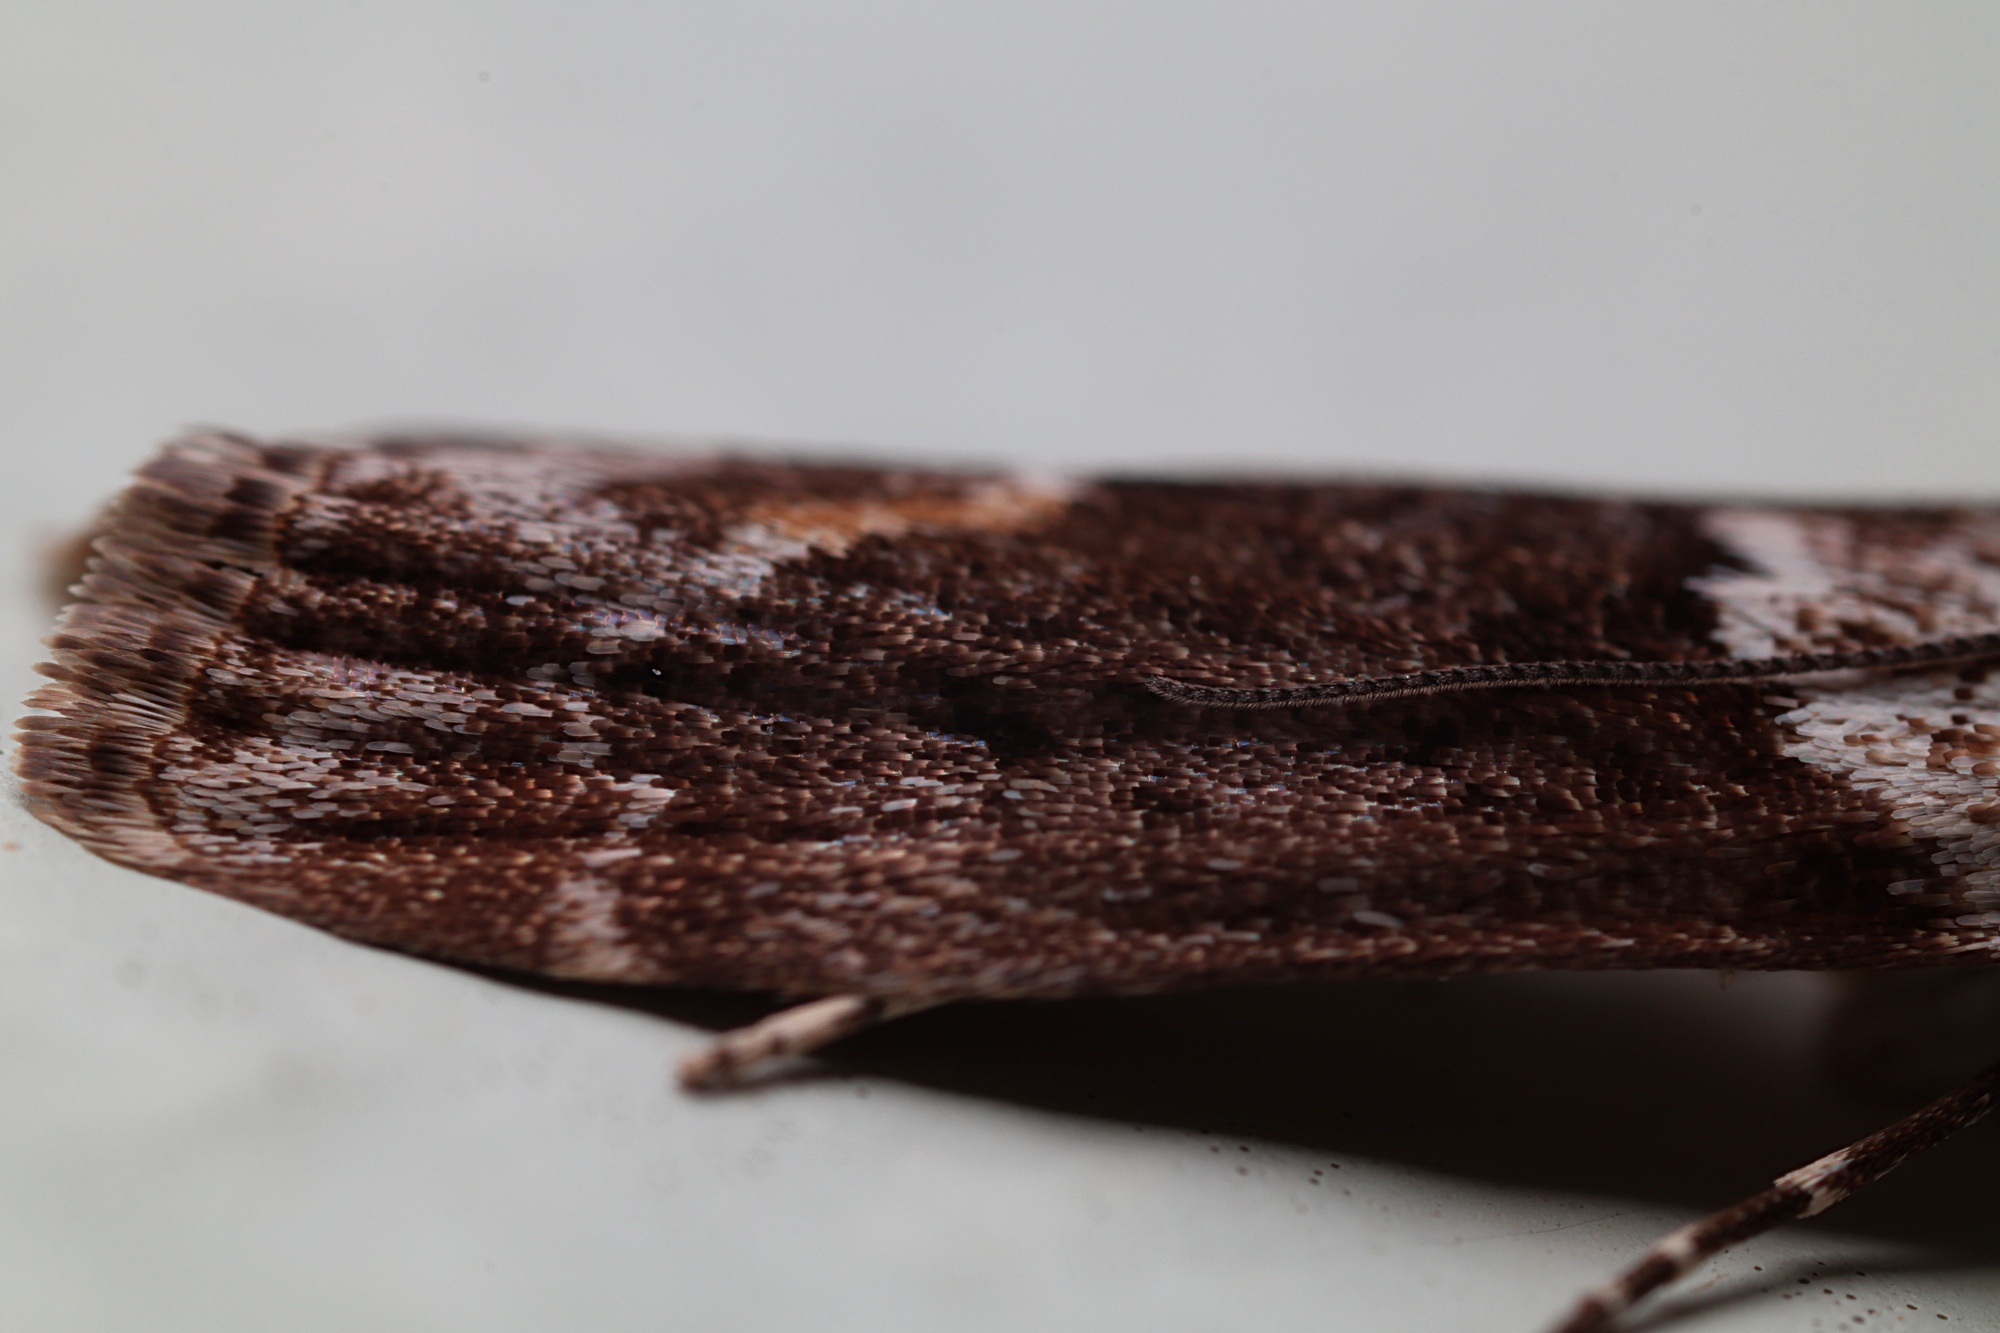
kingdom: Animalia
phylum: Arthropoda
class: Insecta
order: Lepidoptera
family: Crambidae
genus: Eudonia
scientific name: Eudonia submarginalis
